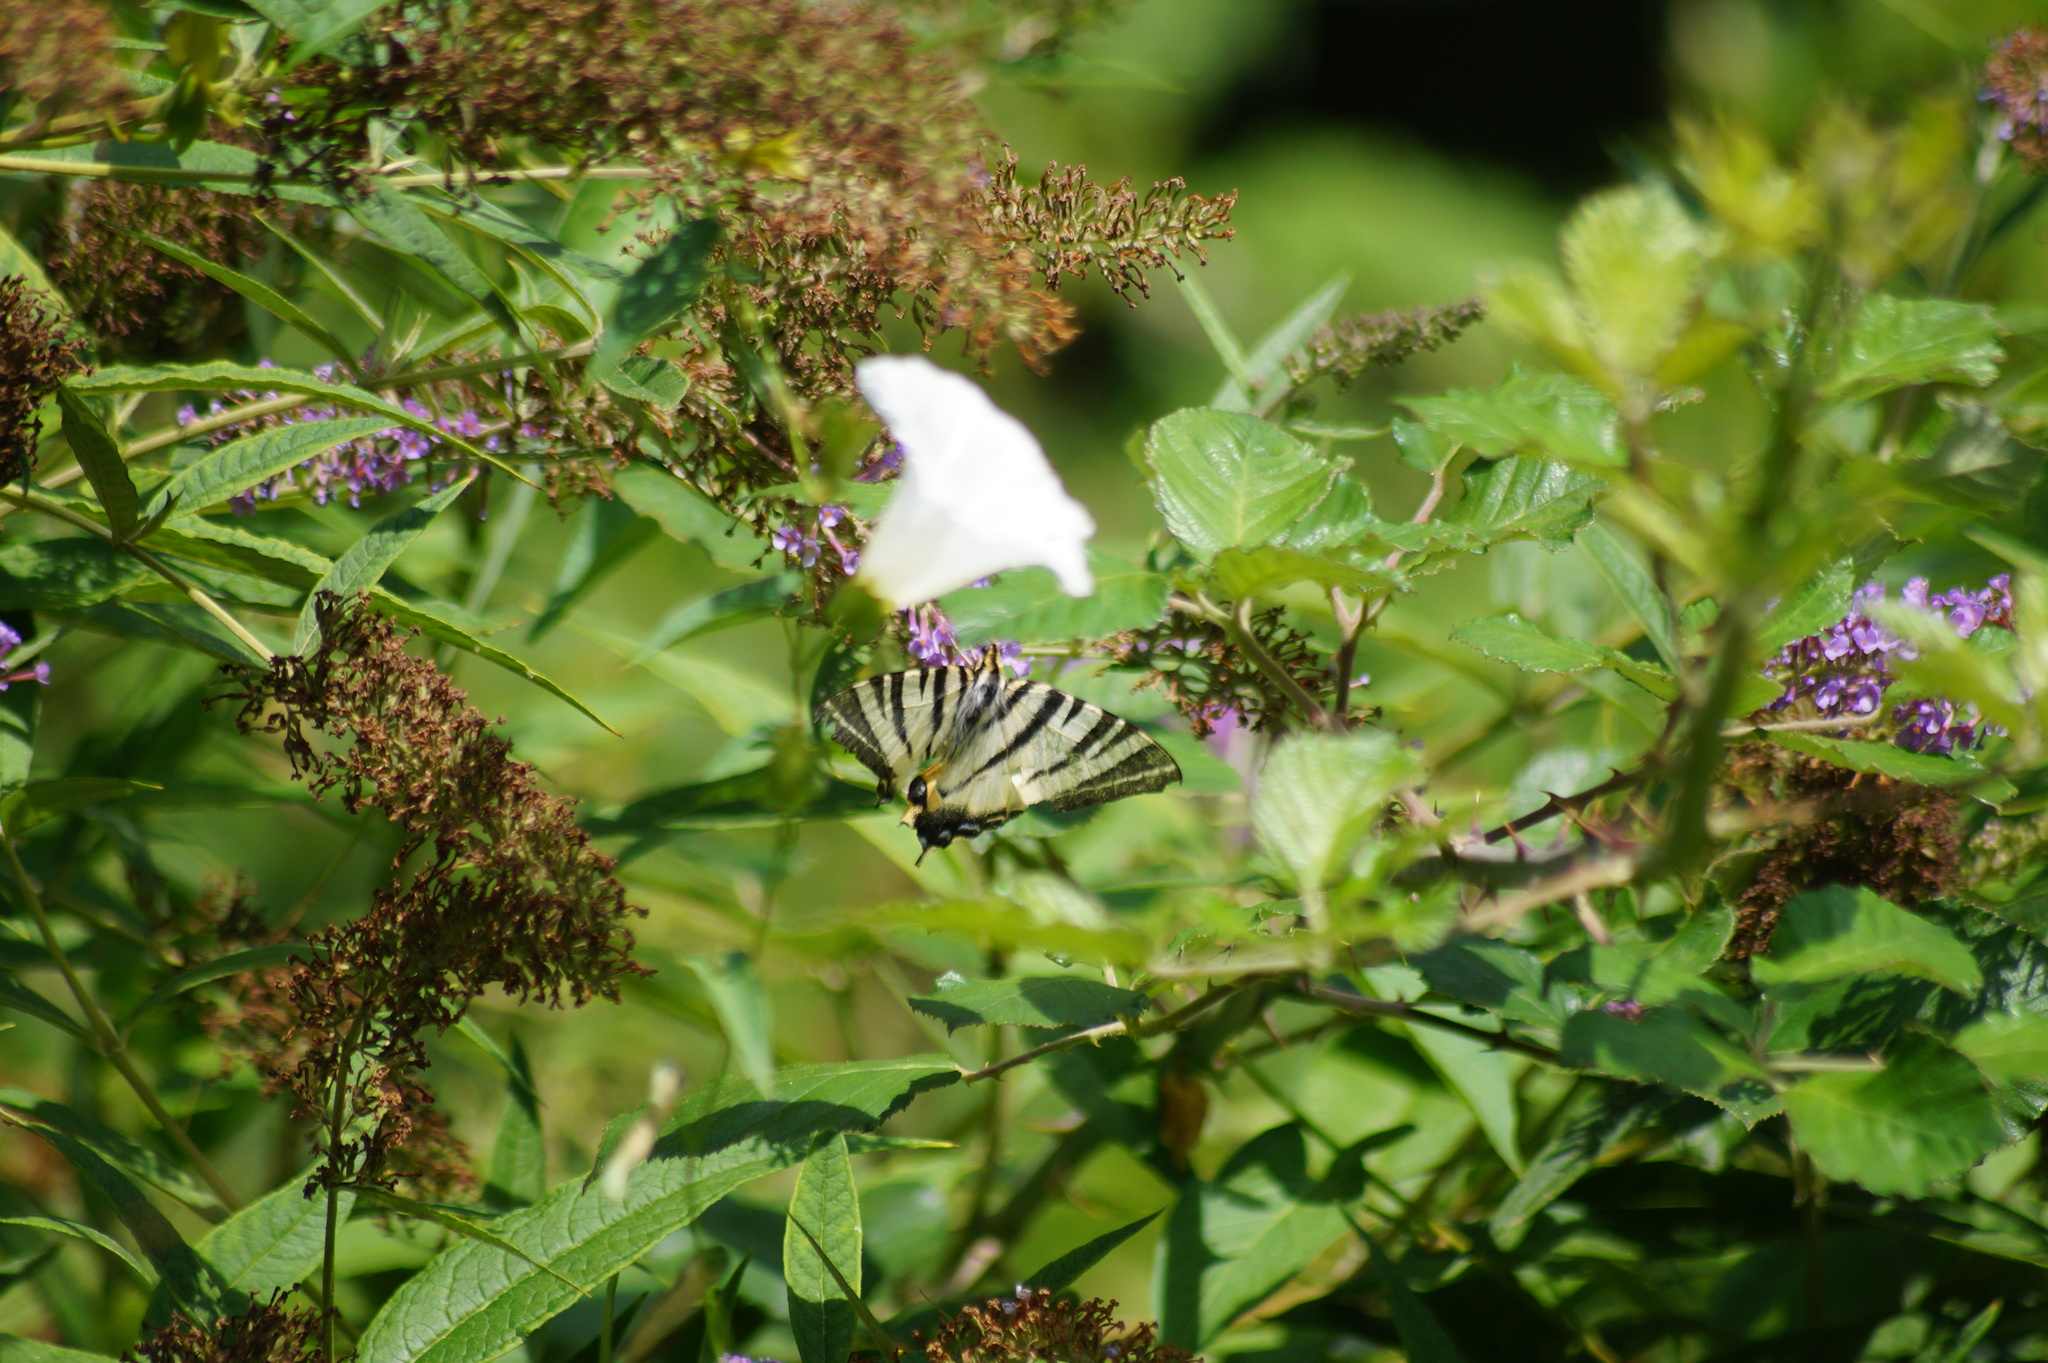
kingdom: Animalia
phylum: Arthropoda
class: Insecta
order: Lepidoptera
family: Papilionidae
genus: Iphiclides
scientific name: Iphiclides podalirius
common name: Scarce swallowtail
